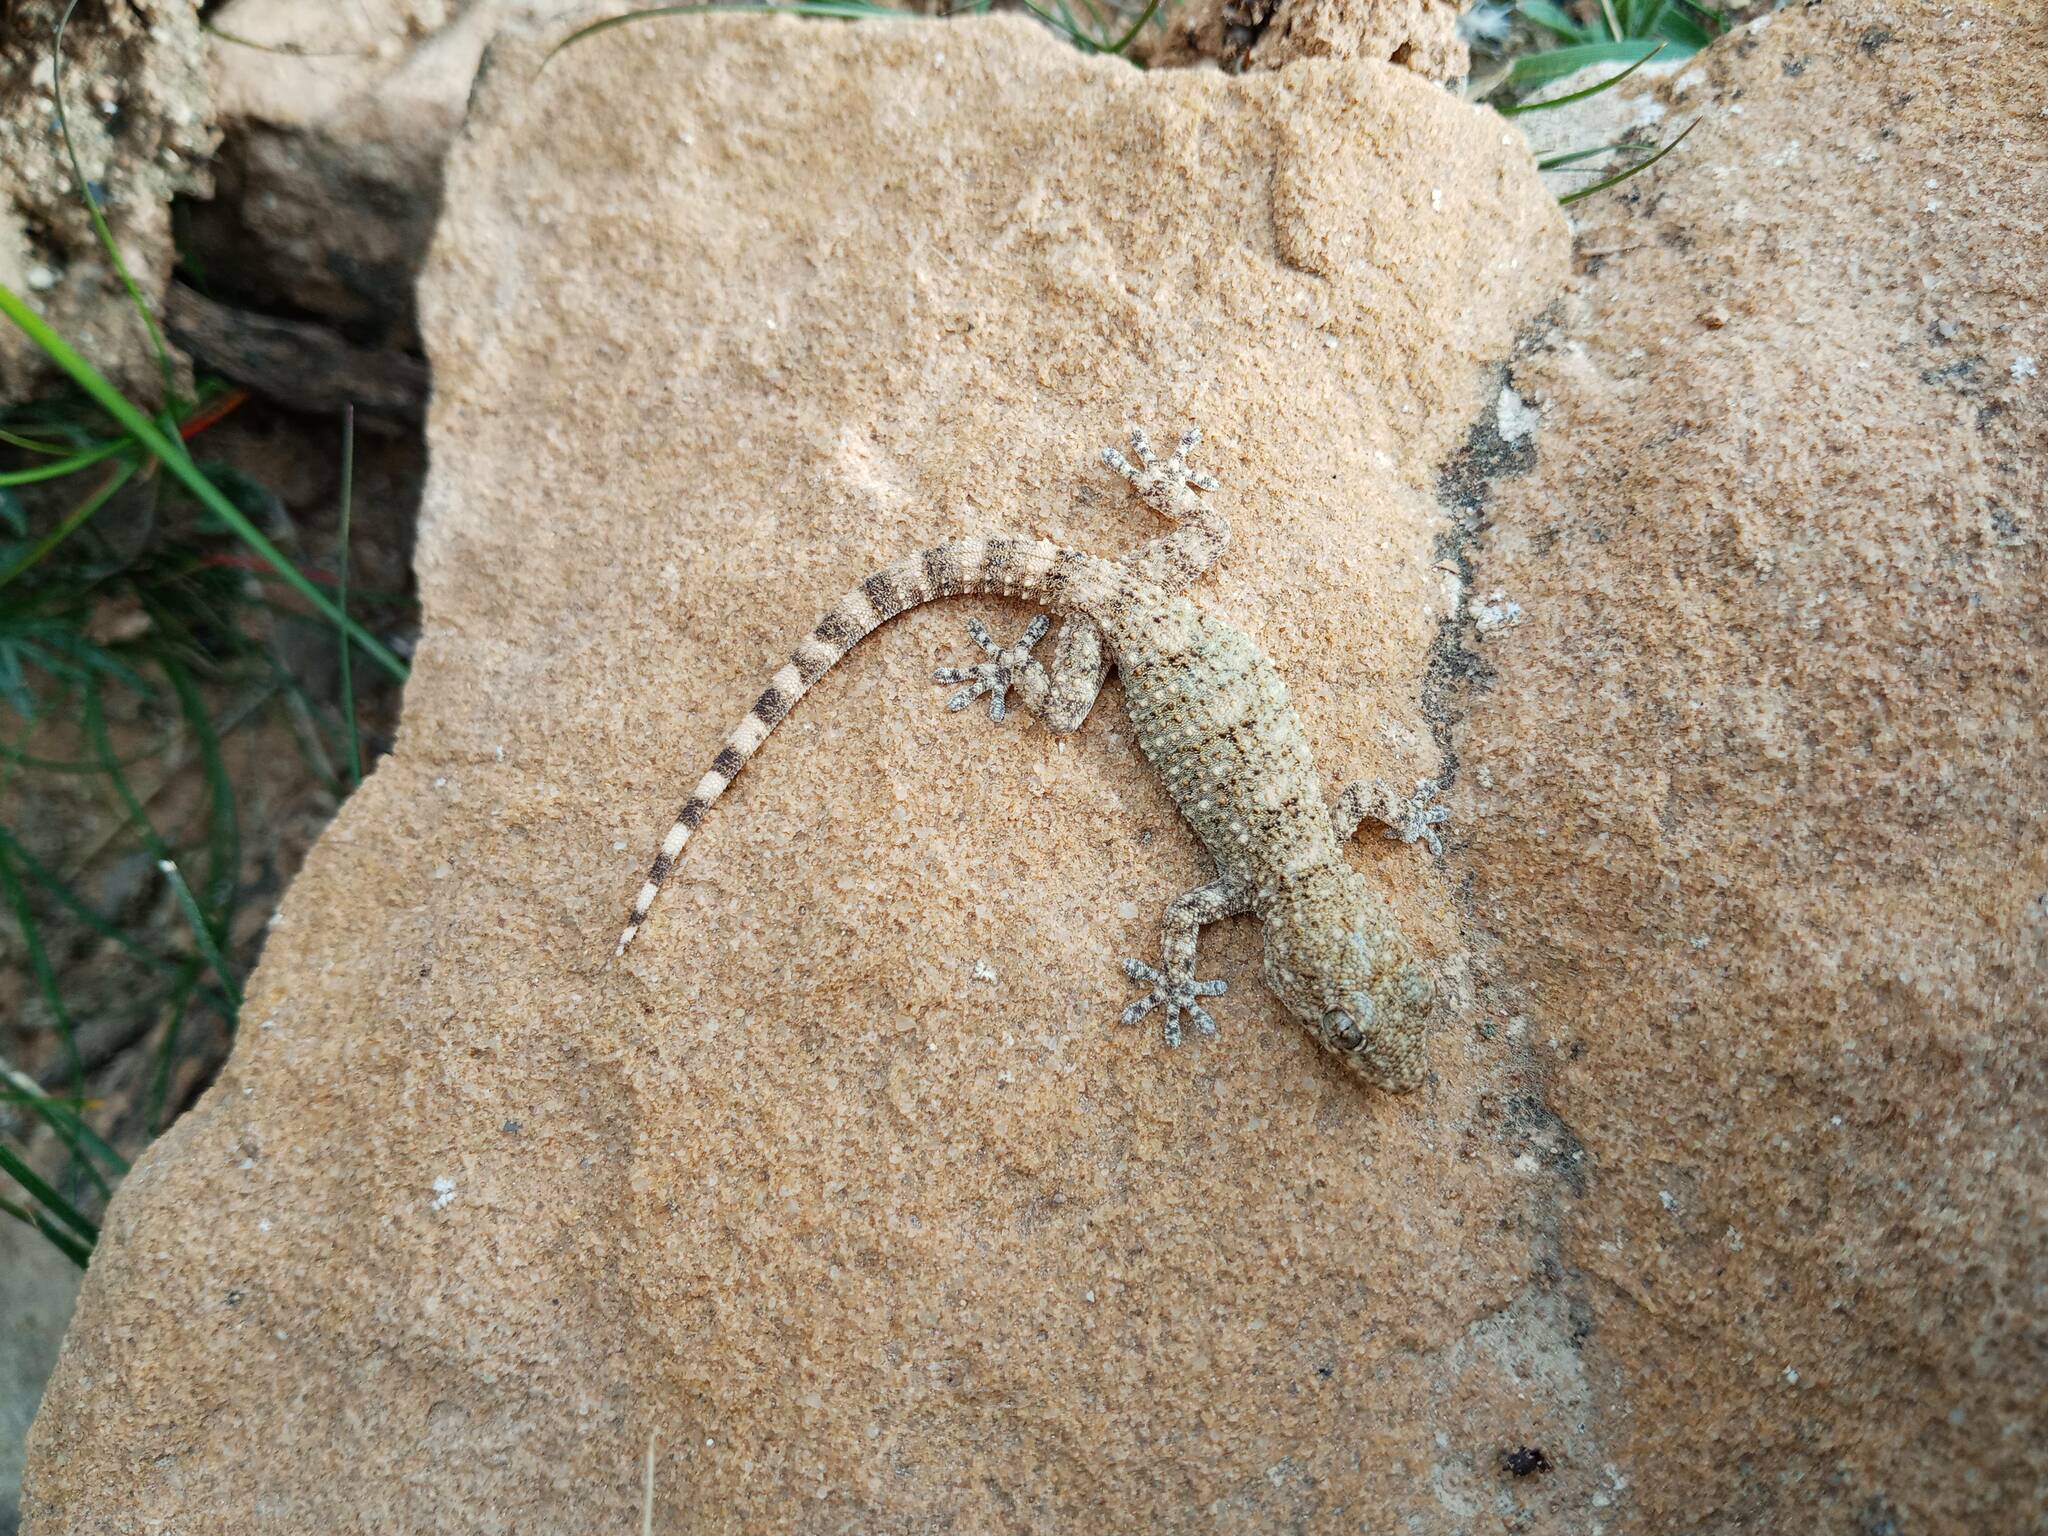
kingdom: Animalia
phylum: Chordata
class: Squamata
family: Phyllodactylidae
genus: Tarentola
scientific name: Tarentola mauritanica
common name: Moorish gecko
